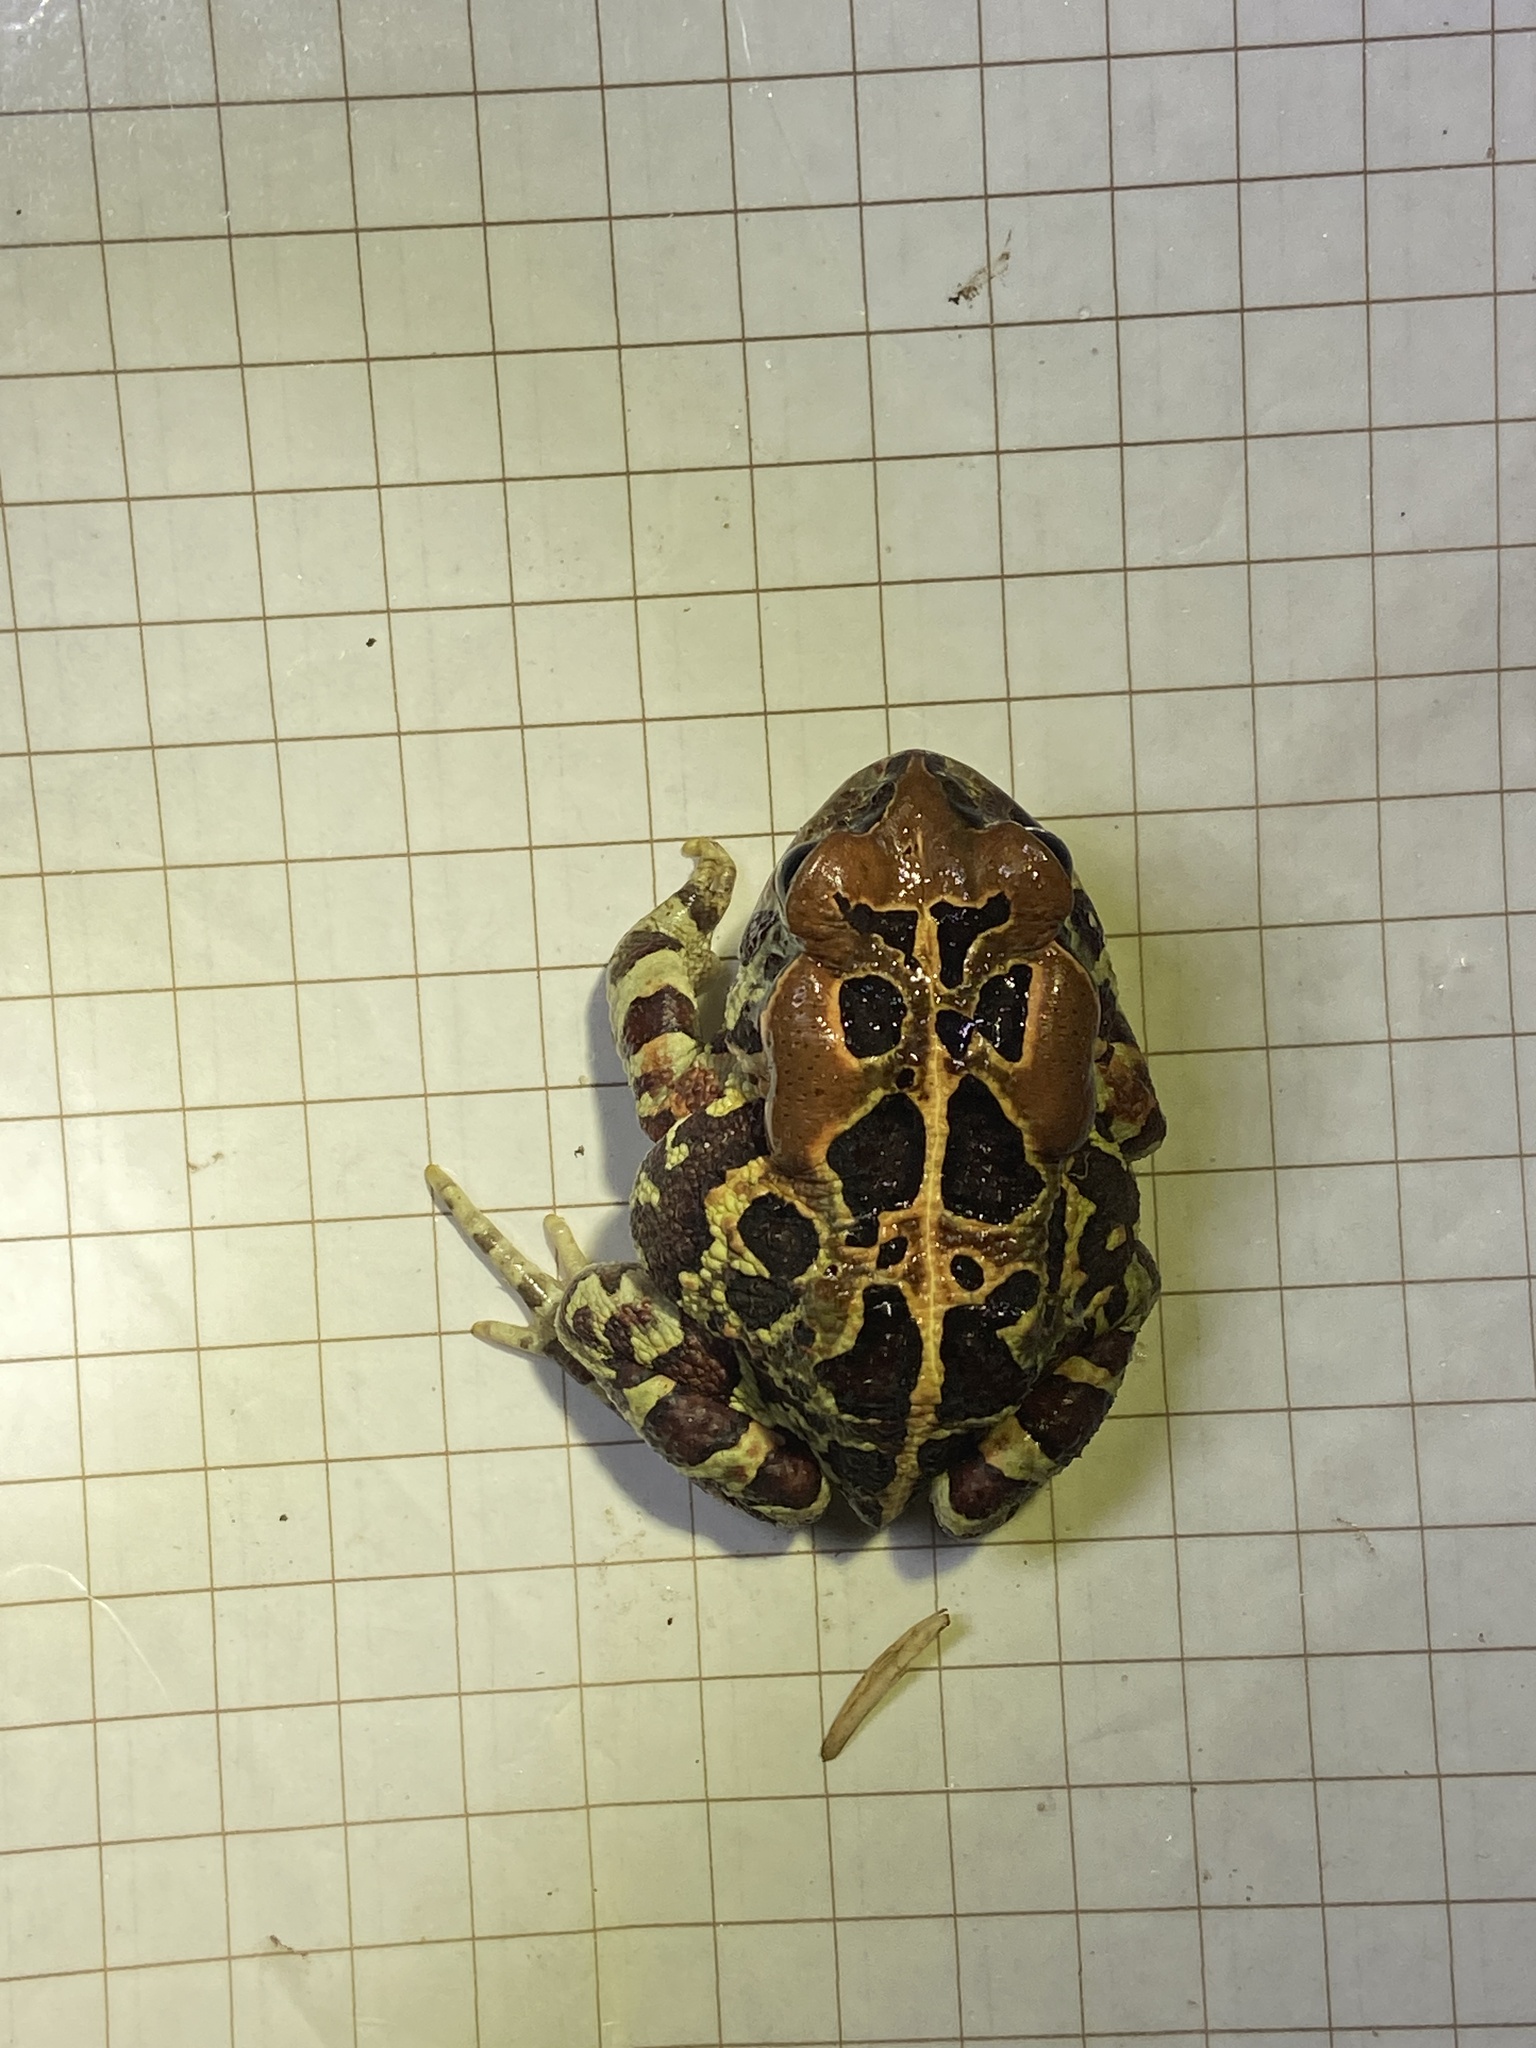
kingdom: Animalia
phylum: Chordata
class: Amphibia
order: Anura
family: Bufonidae
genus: Sclerophrys
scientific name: Sclerophrys pantherina
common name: Panther toad
